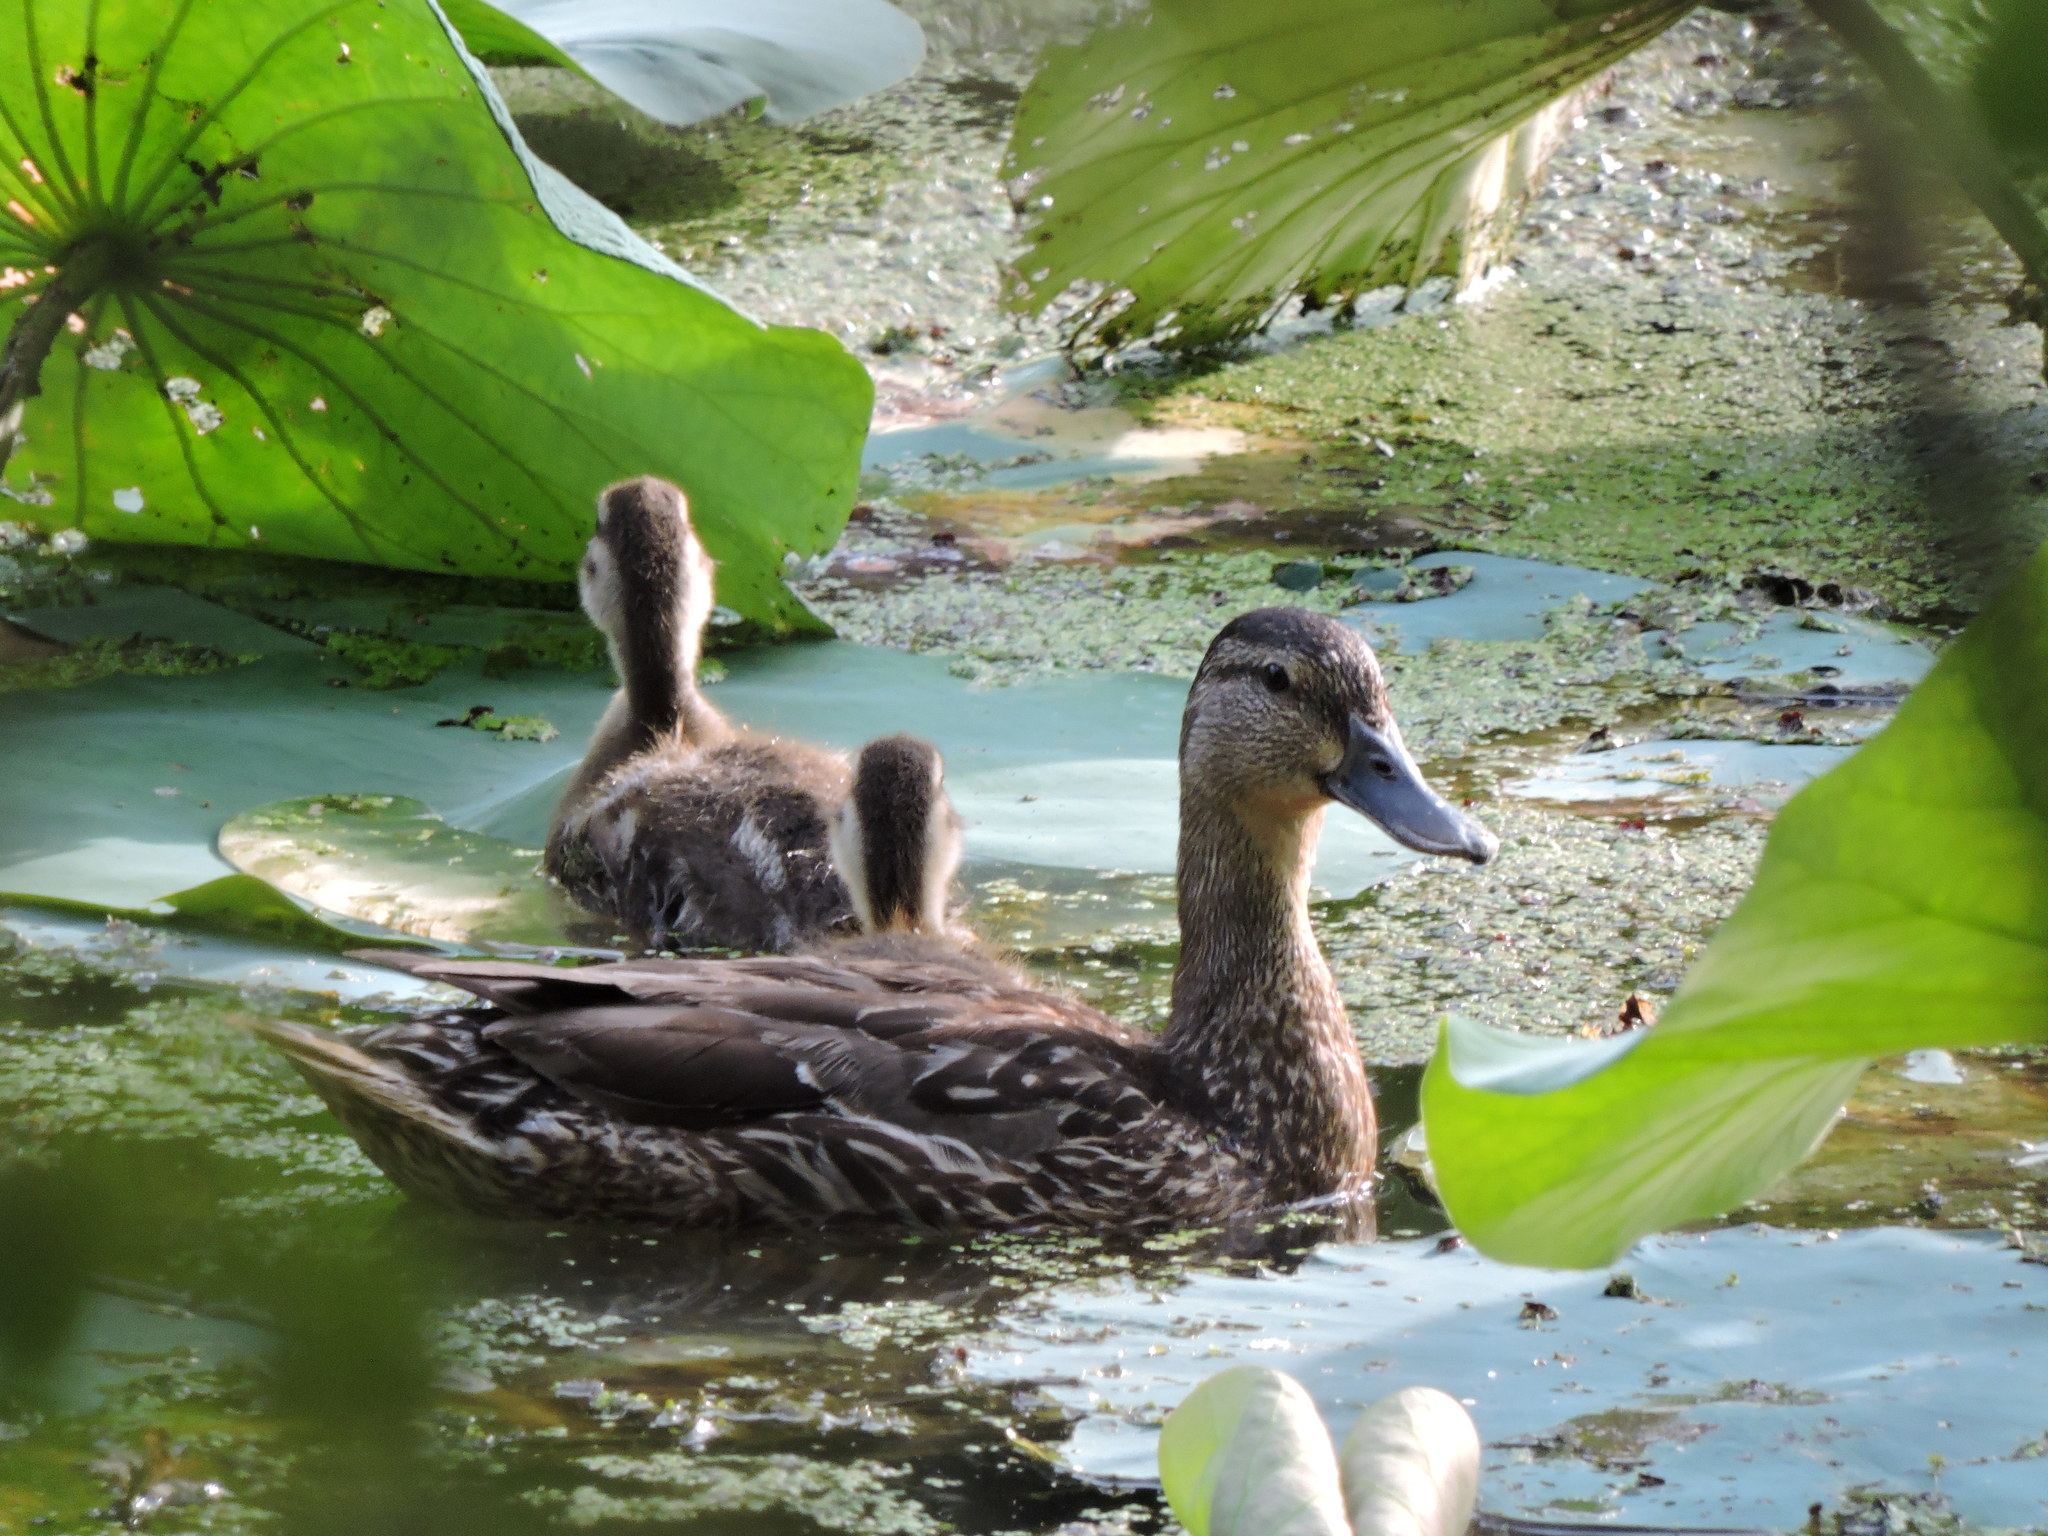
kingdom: Animalia
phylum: Chordata
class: Aves
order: Anseriformes
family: Anatidae
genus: Anas
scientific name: Anas platyrhynchos
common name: Mallard
